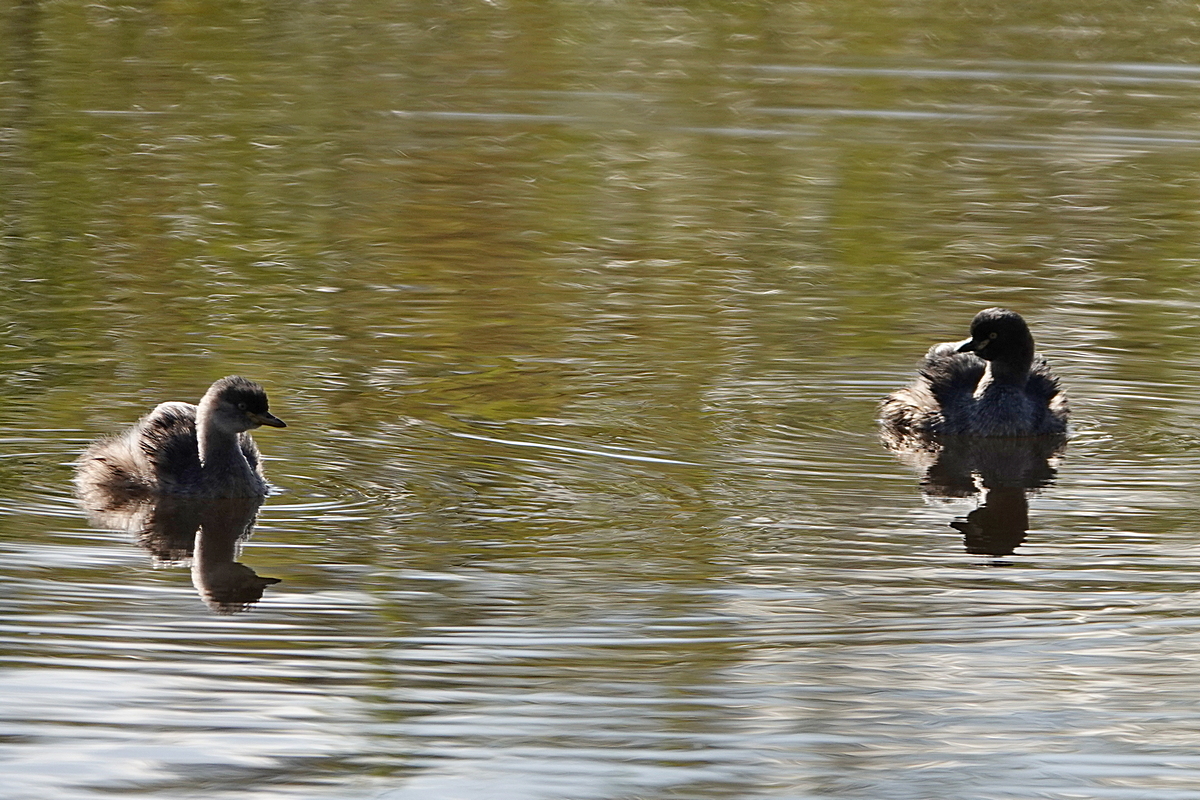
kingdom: Animalia
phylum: Chordata
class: Aves
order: Podicipediformes
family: Podicipedidae
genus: Tachybaptus
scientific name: Tachybaptus novaehollandiae
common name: Australasian grebe
